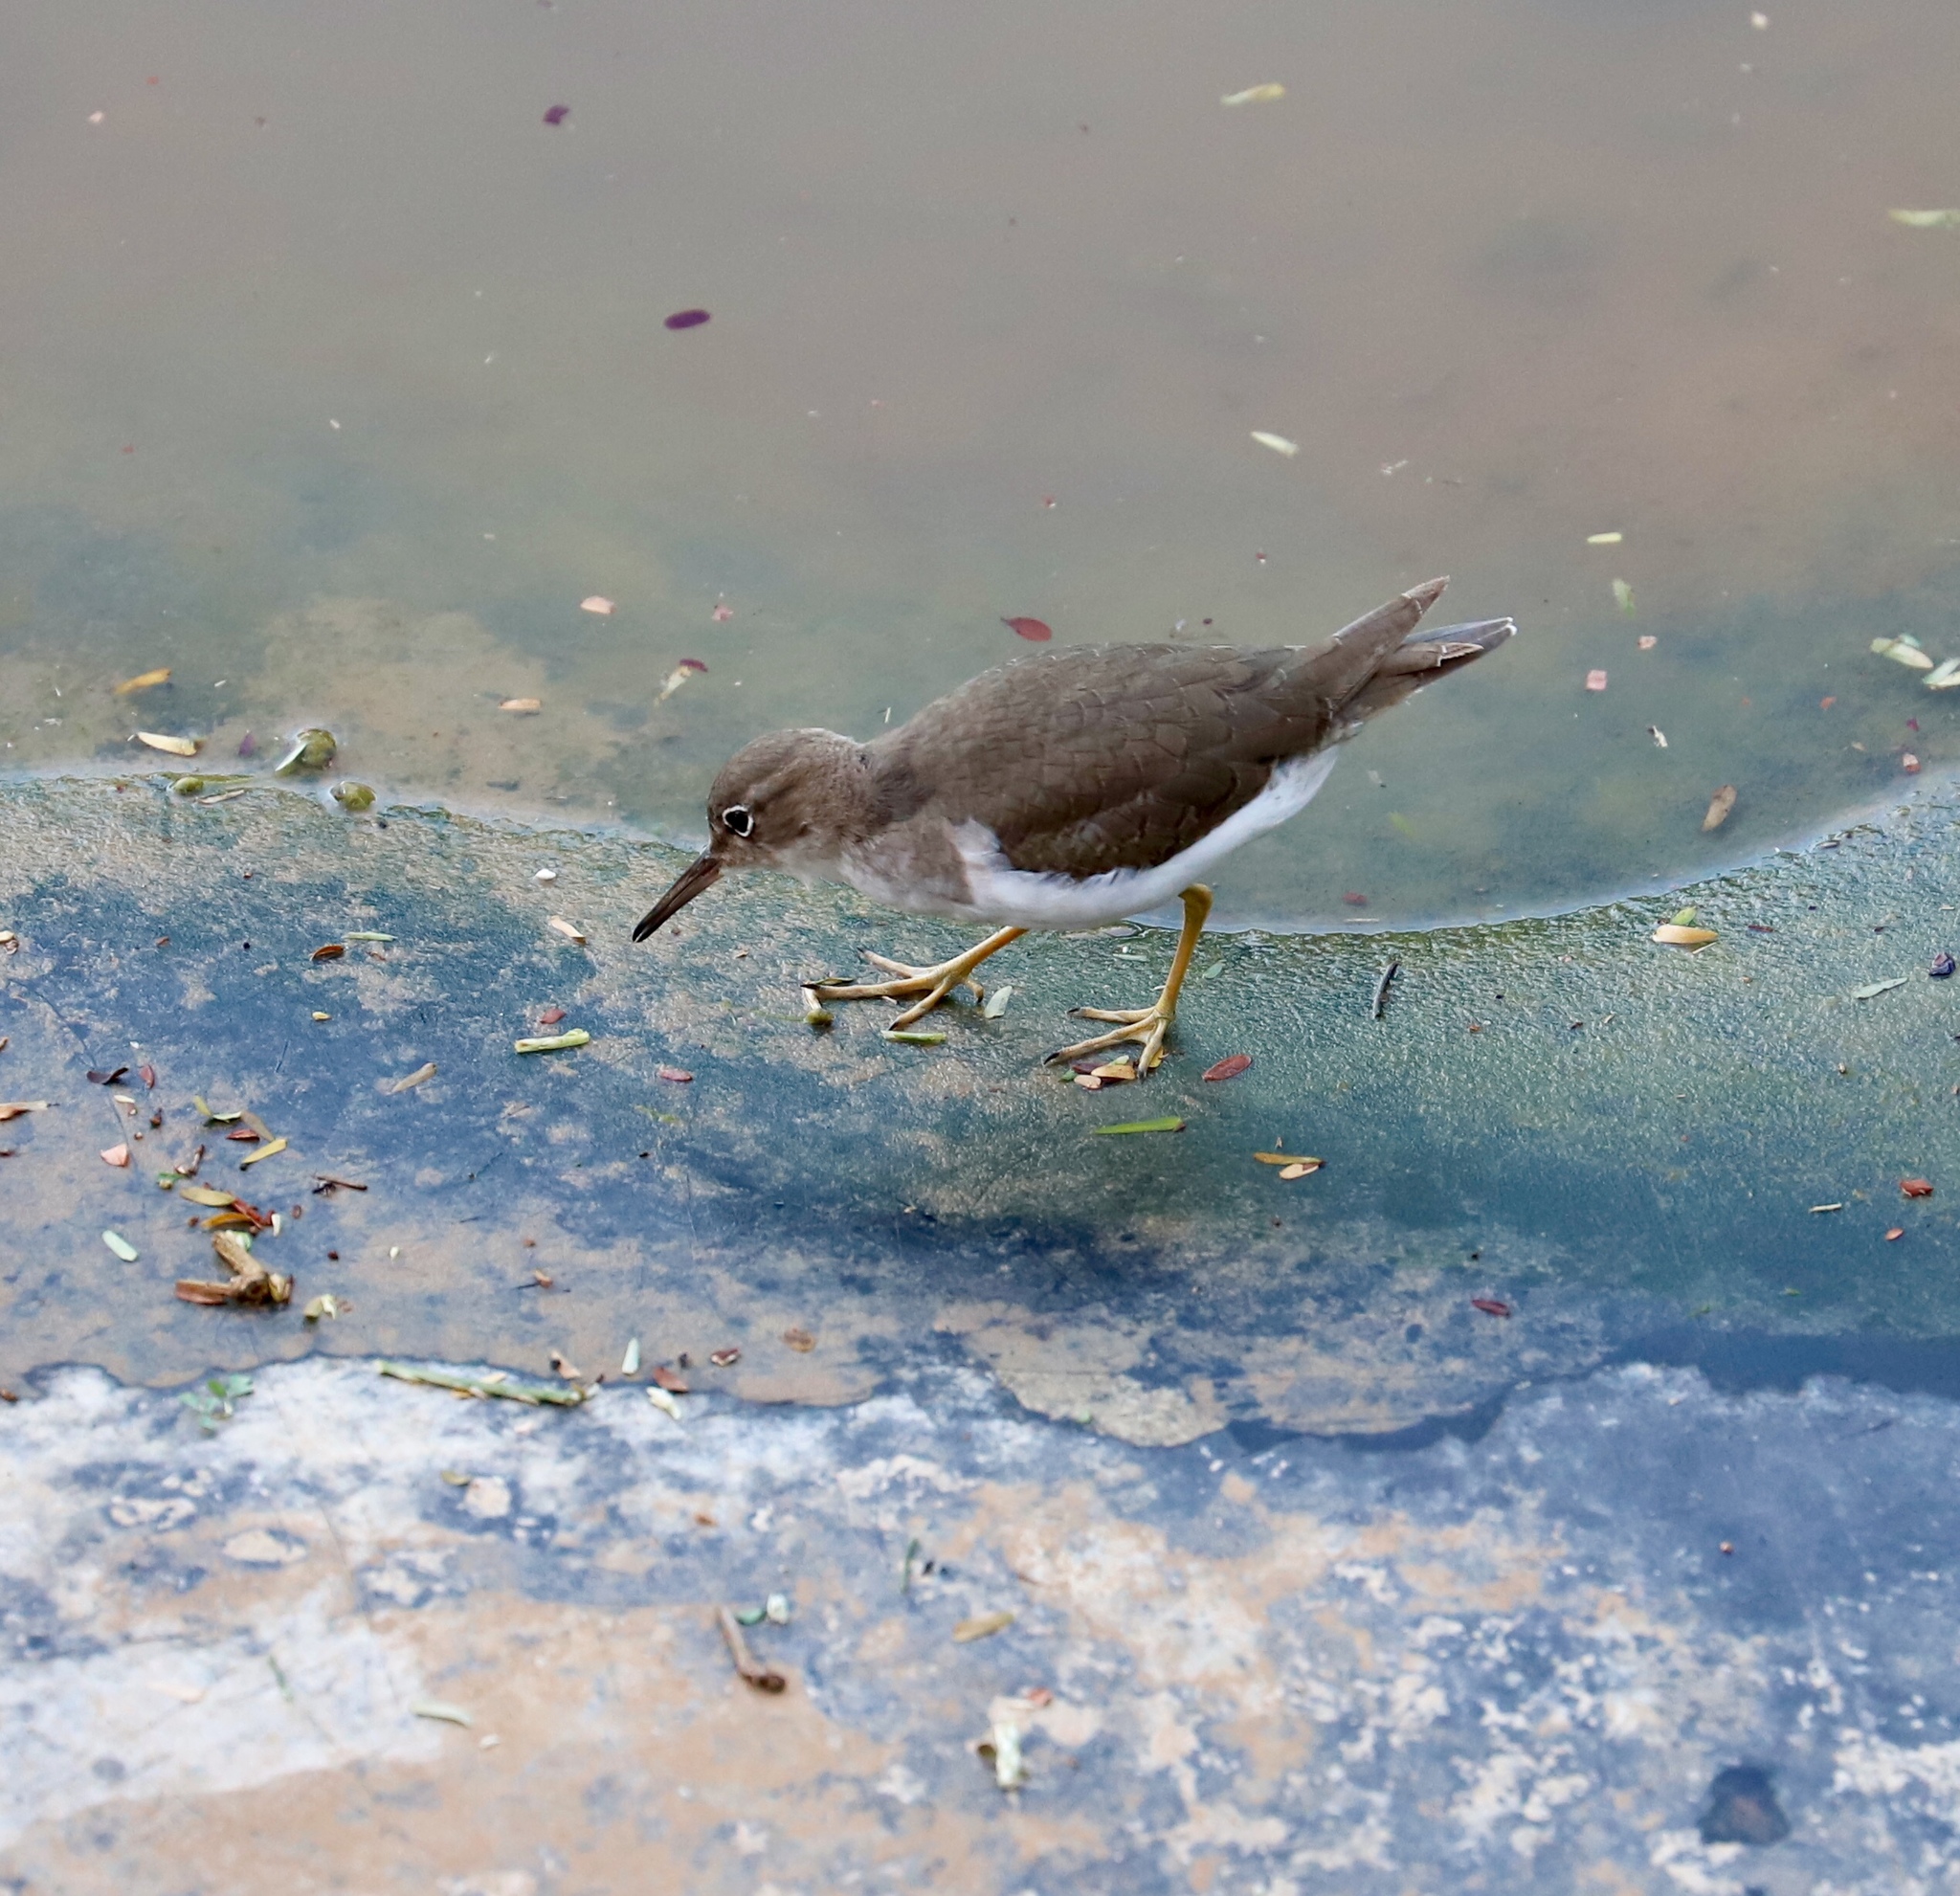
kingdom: Animalia
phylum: Chordata
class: Aves
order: Charadriiformes
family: Scolopacidae
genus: Actitis
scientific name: Actitis macularius
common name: Spotted sandpiper
